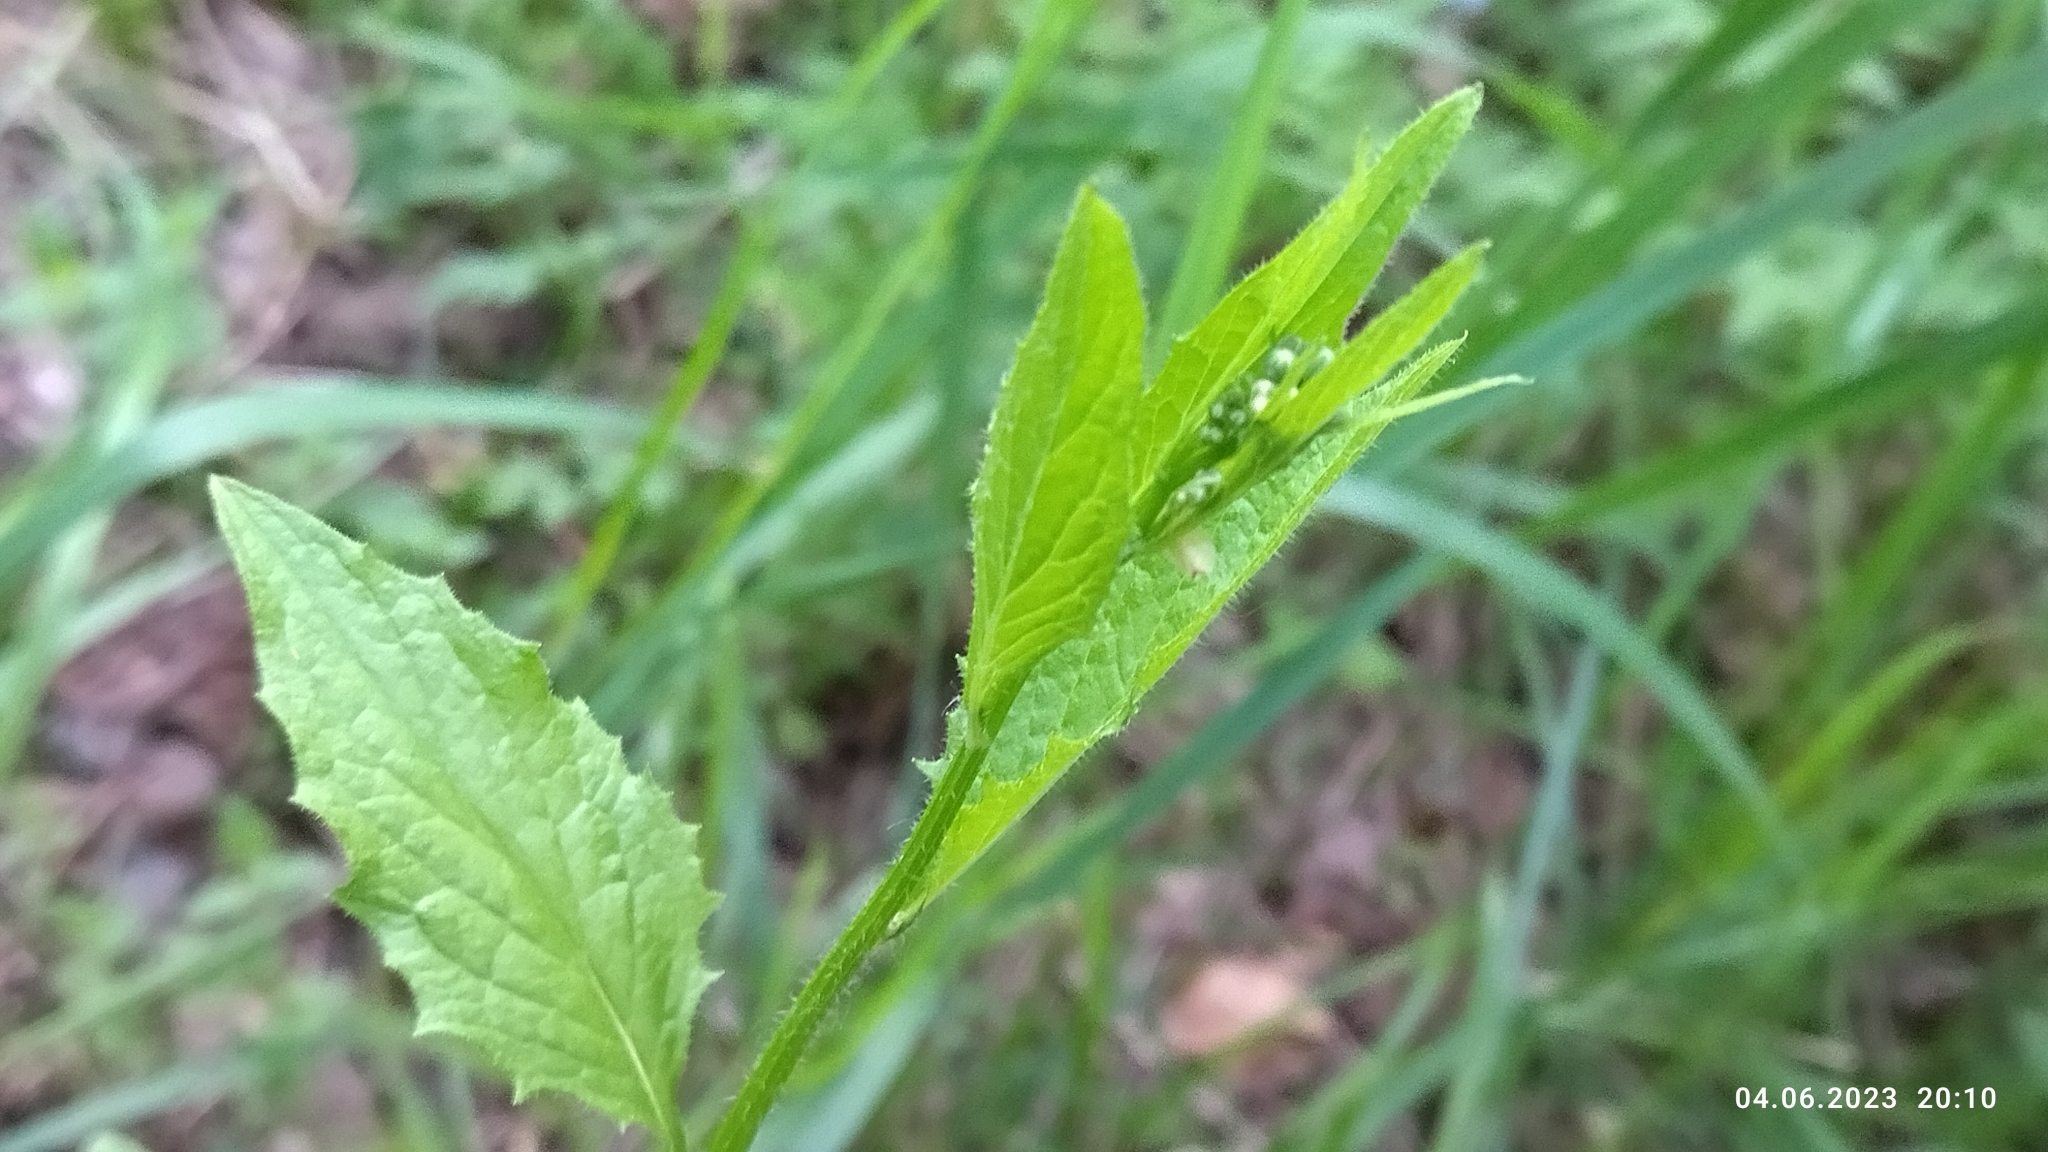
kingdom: Plantae
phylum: Tracheophyta
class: Magnoliopsida
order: Asterales
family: Asteraceae
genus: Lapsana
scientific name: Lapsana communis
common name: Nipplewort
